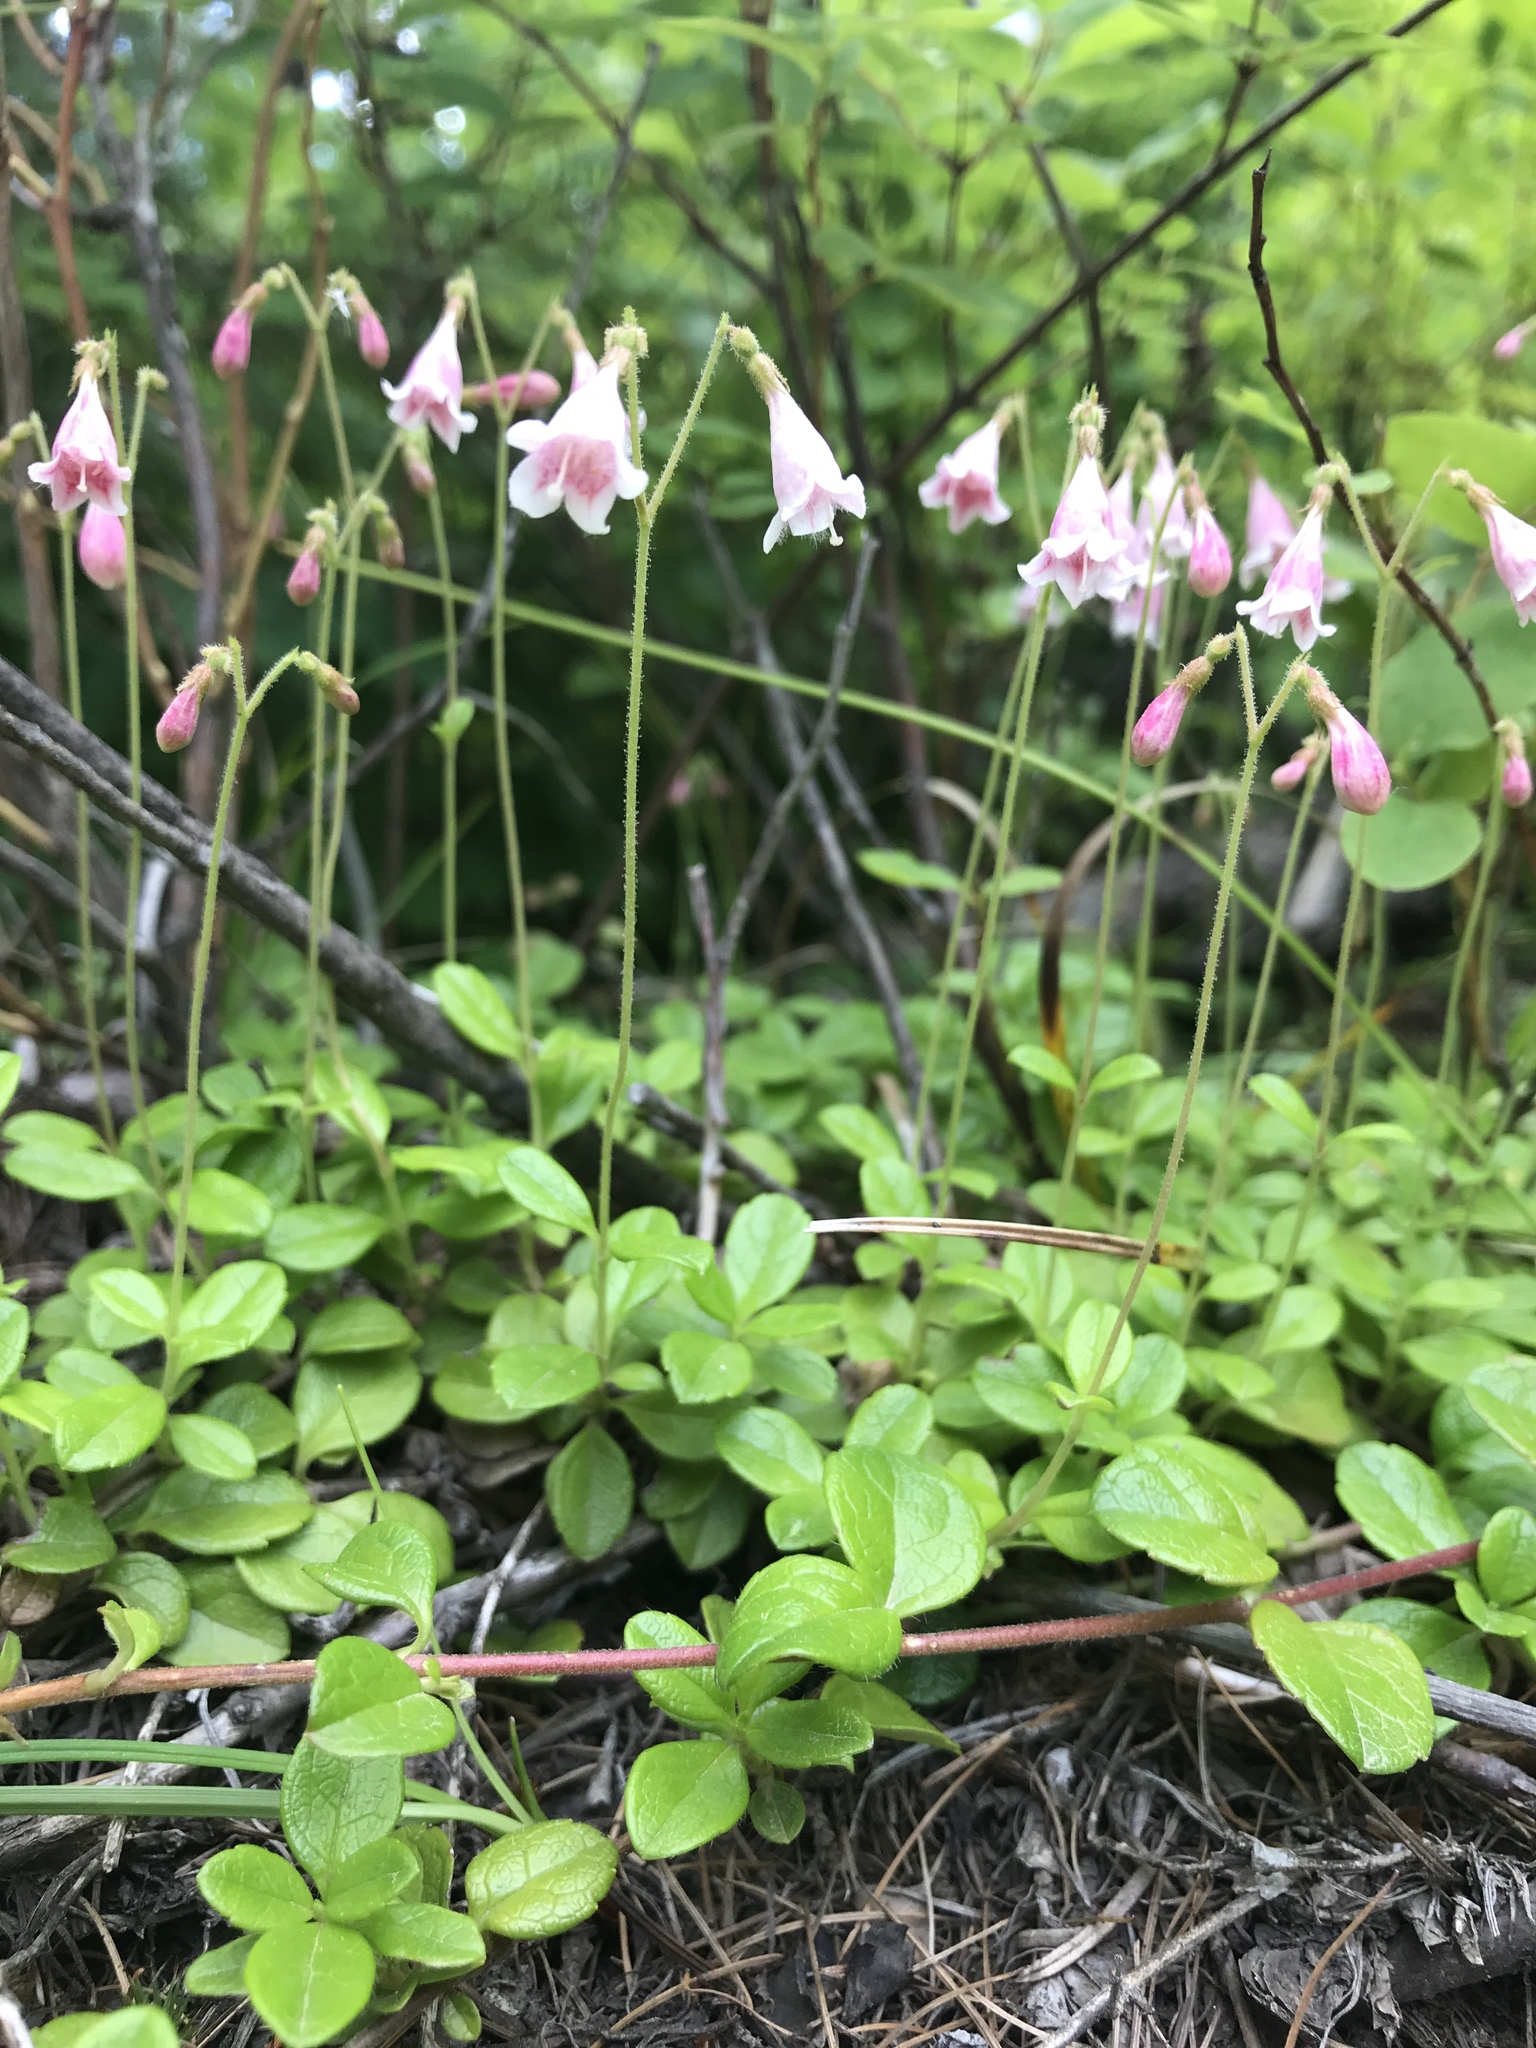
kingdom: Plantae
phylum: Tracheophyta
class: Magnoliopsida
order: Dipsacales
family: Caprifoliaceae
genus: Linnaea
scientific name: Linnaea borealis
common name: Twinflower
